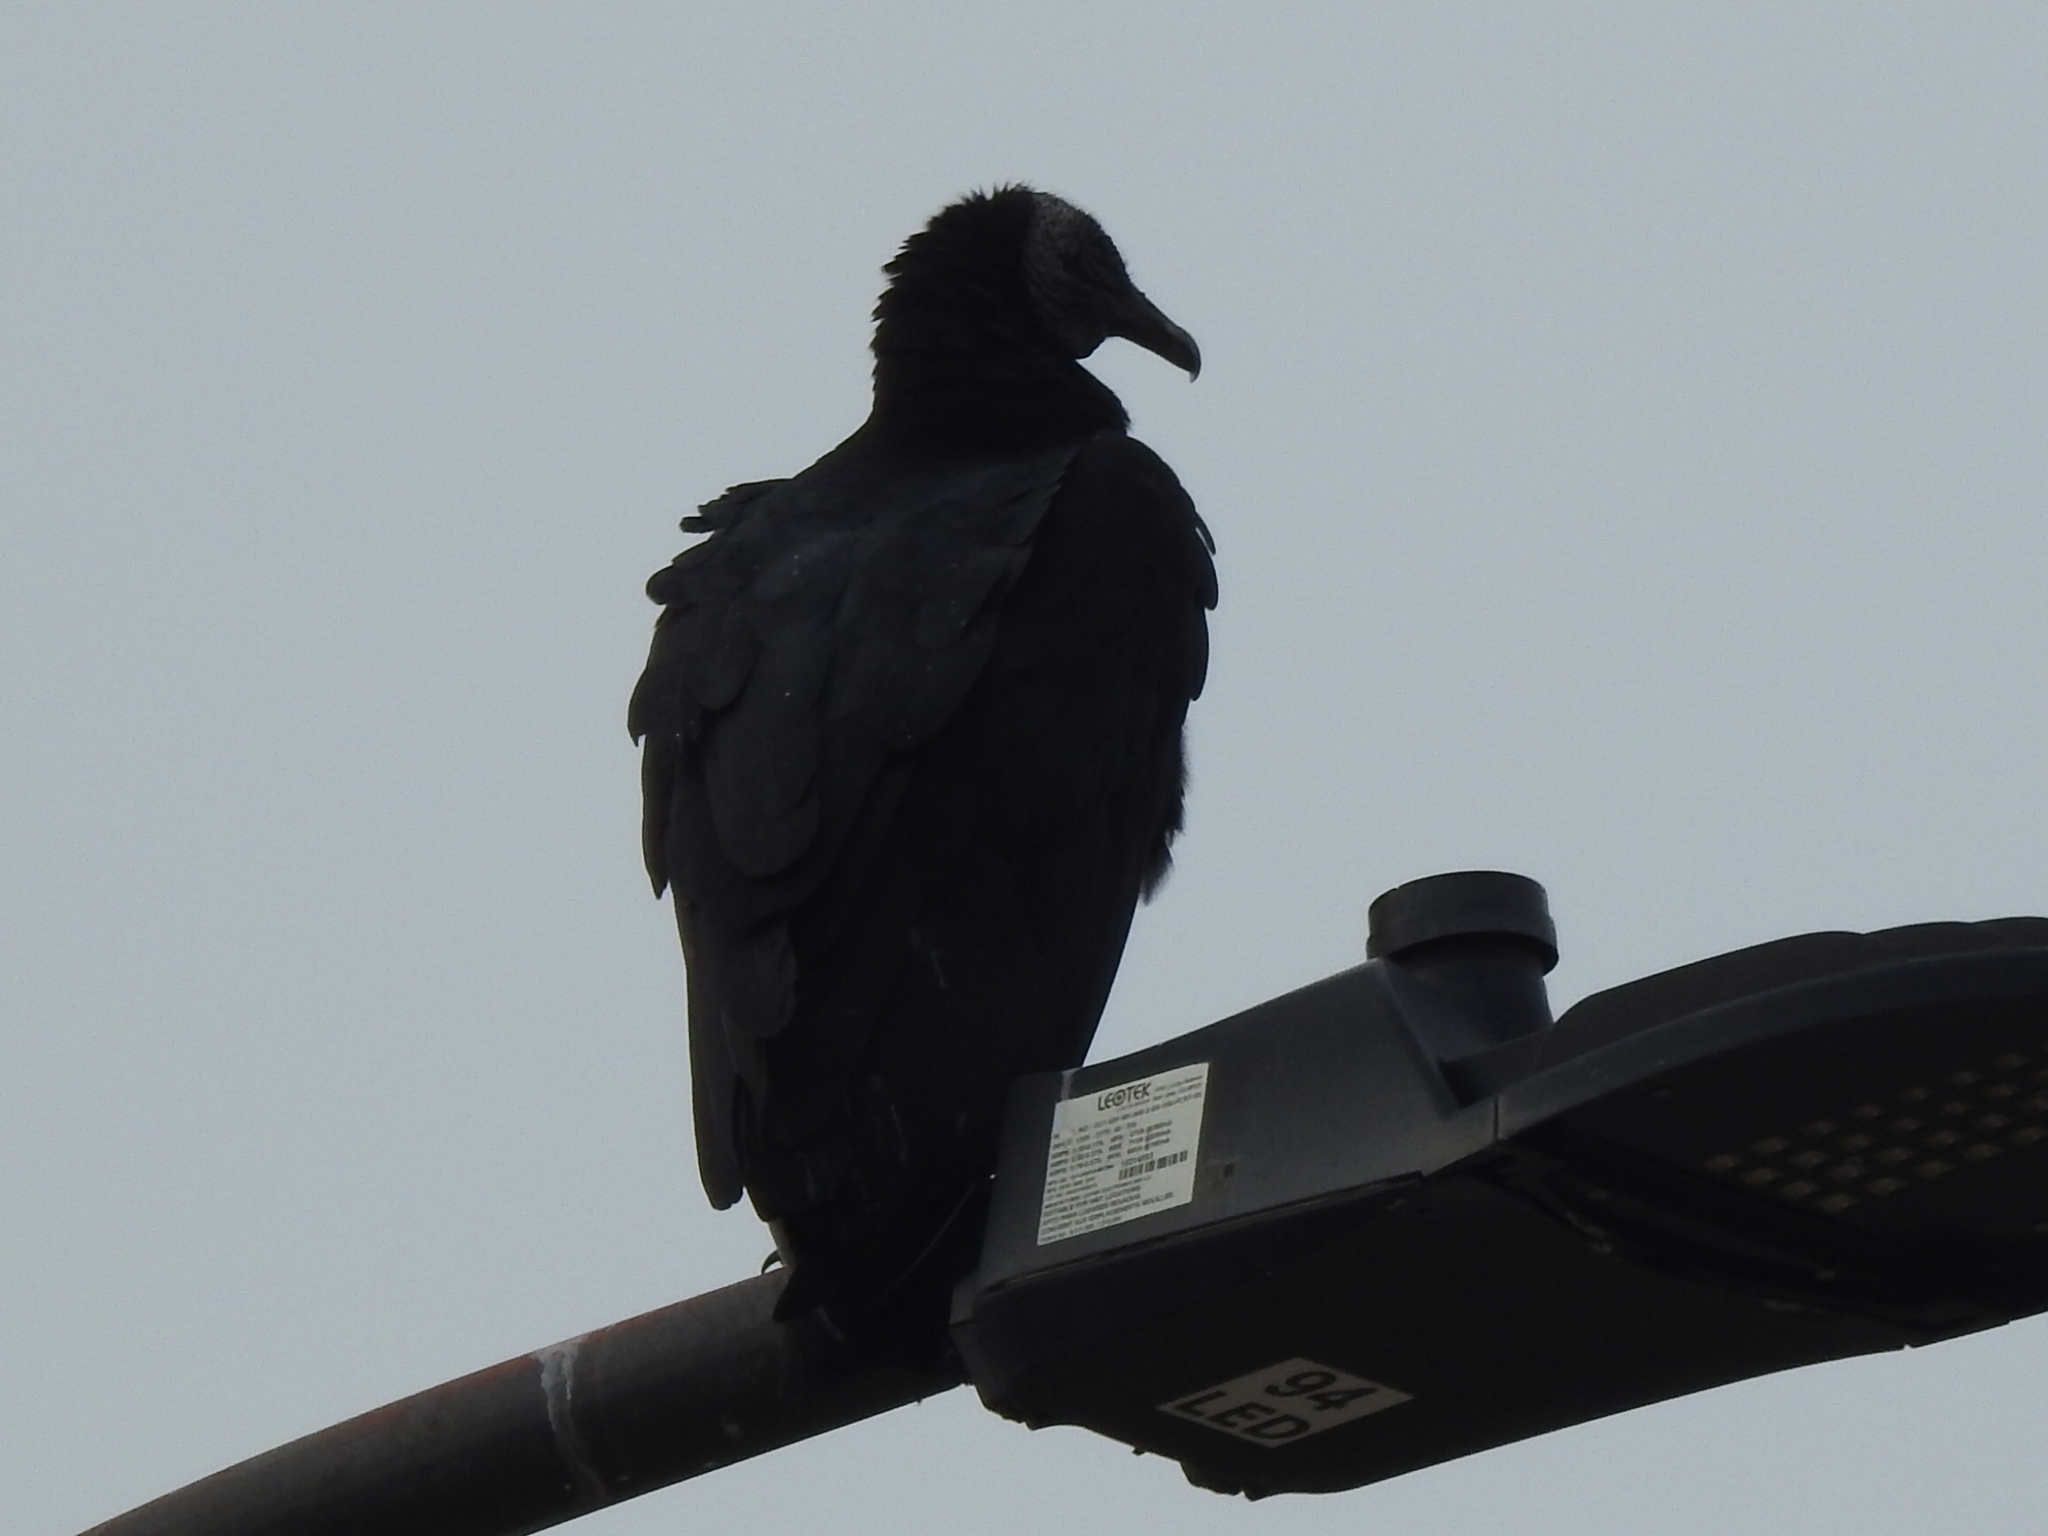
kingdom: Animalia
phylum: Chordata
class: Aves
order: Accipitriformes
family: Cathartidae
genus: Coragyps
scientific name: Coragyps atratus
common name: Black vulture
